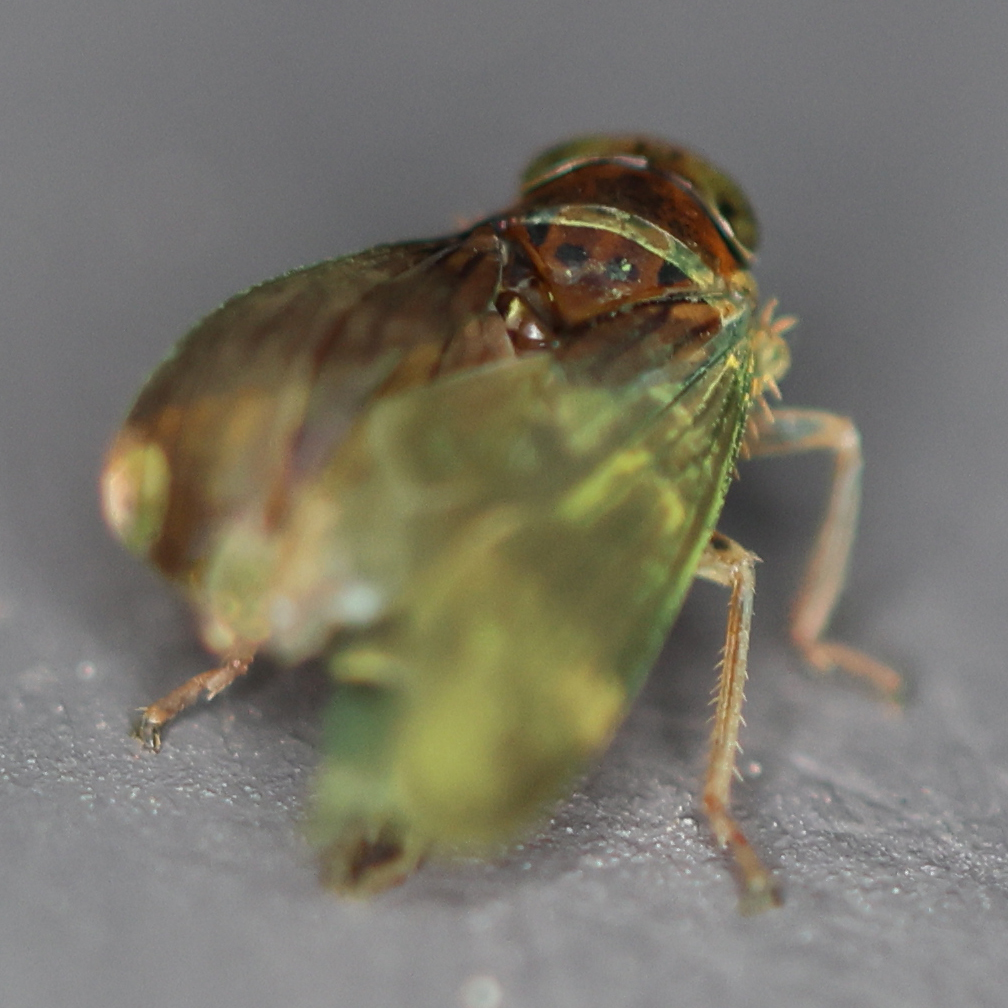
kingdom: Animalia
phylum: Arthropoda
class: Insecta
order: Hemiptera
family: Cicadellidae
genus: Jikradia
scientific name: Jikradia olitoria
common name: Coppery leafhopper
